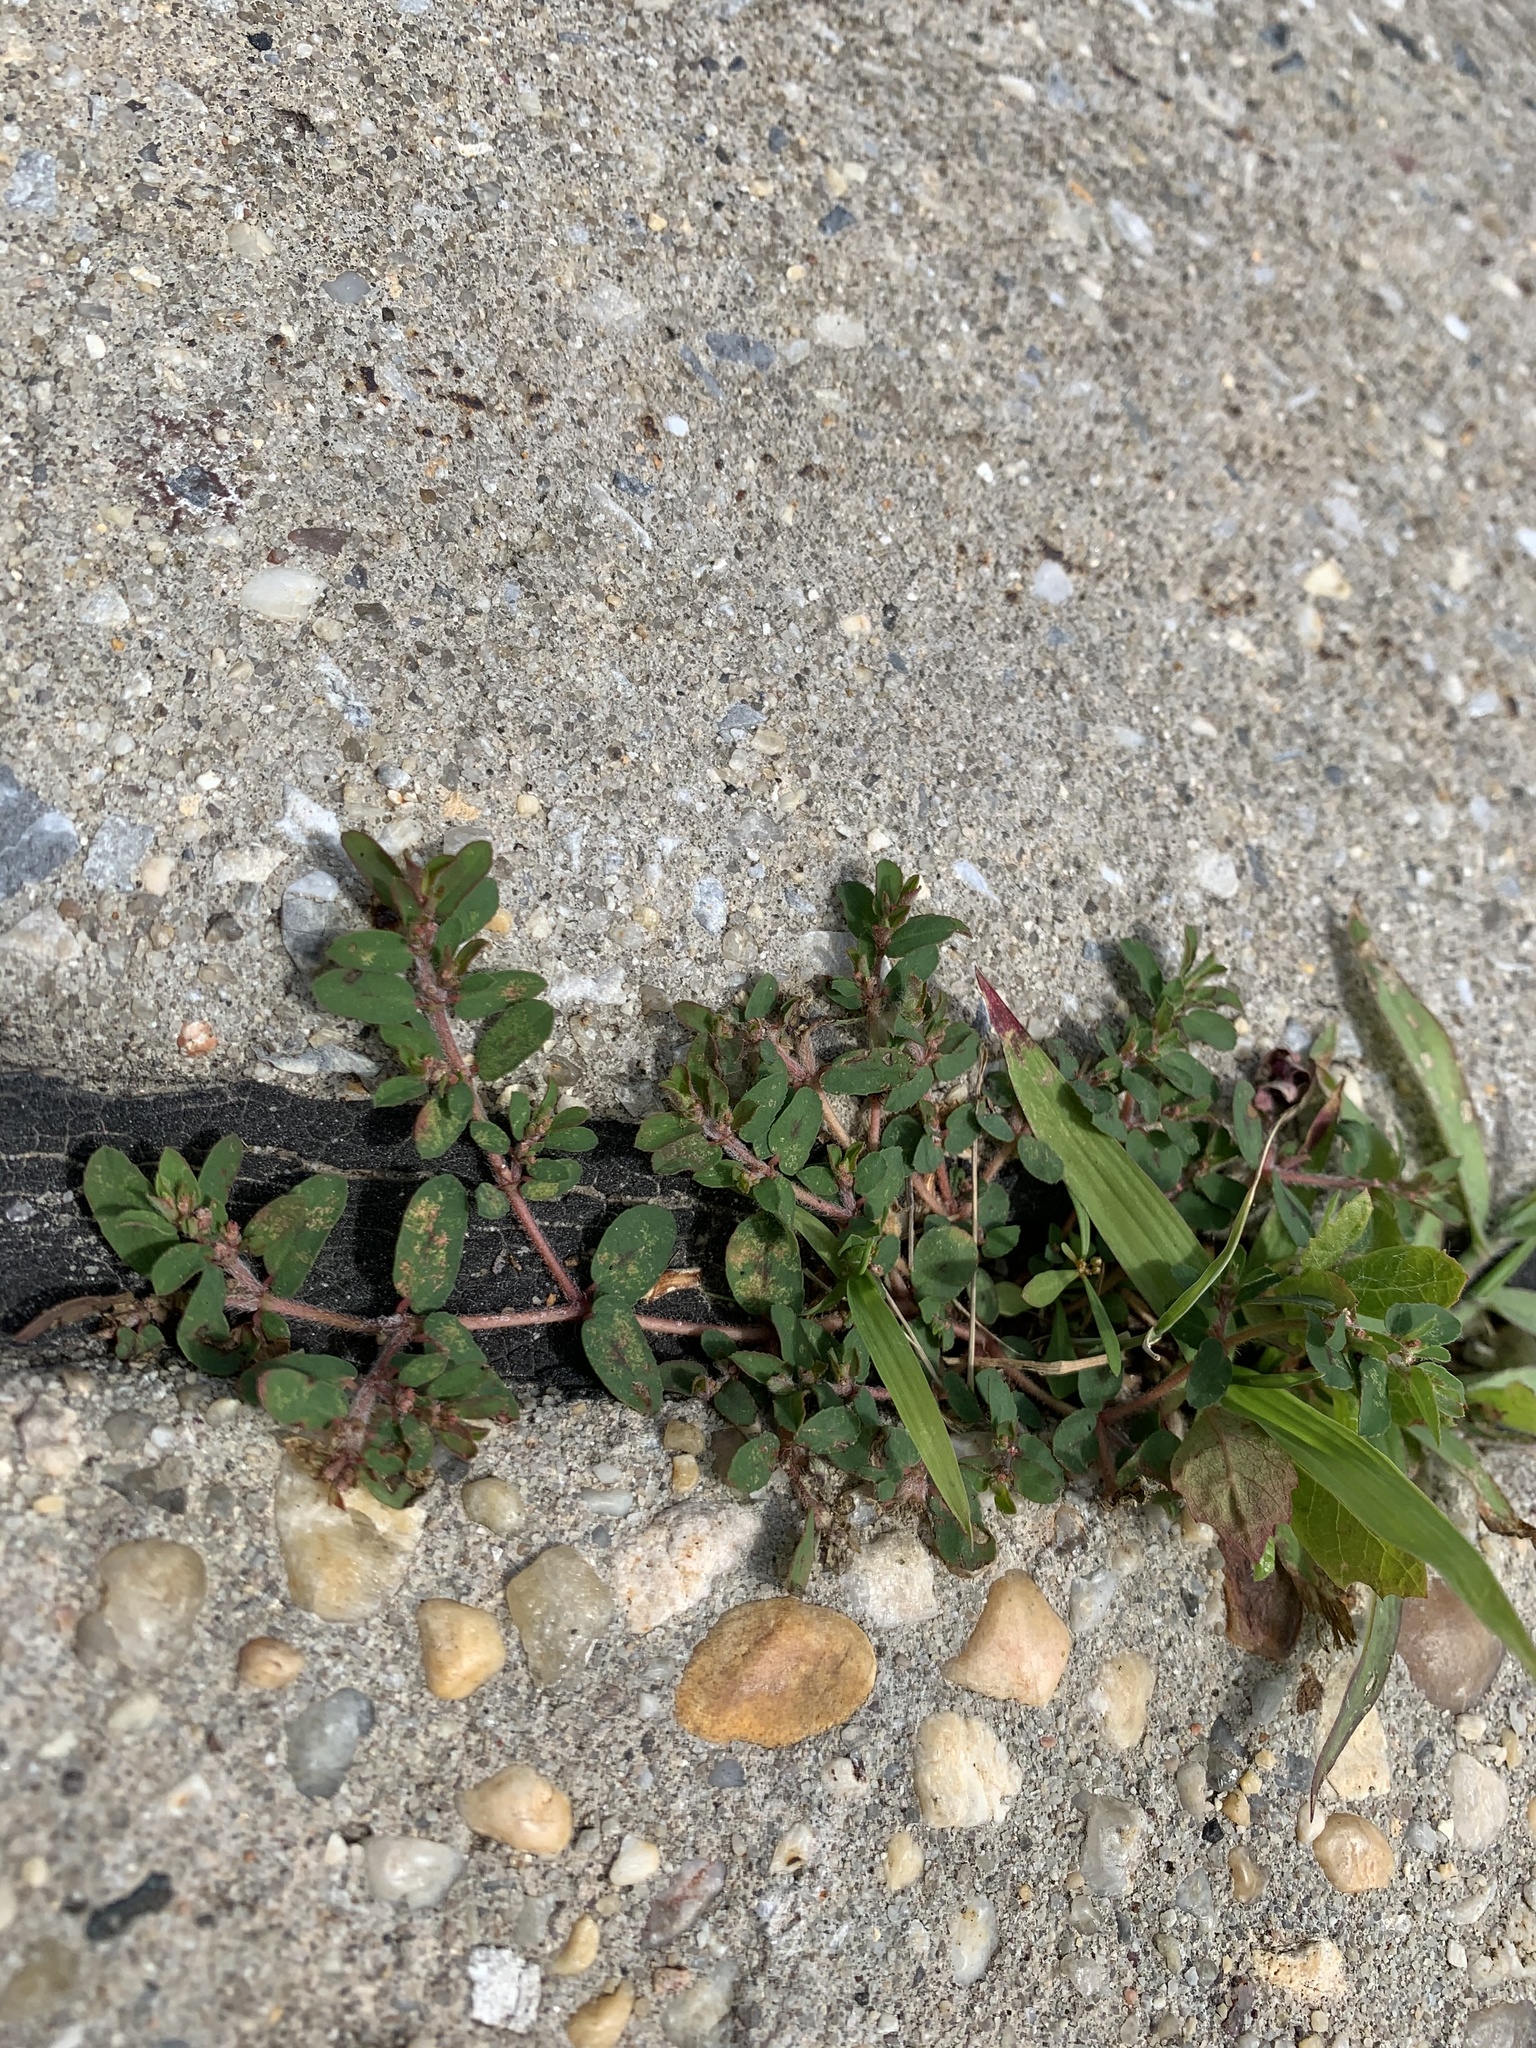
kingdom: Plantae
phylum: Tracheophyta
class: Magnoliopsida
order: Malpighiales
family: Euphorbiaceae
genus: Euphorbia
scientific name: Euphorbia maculata
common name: Spotted spurge
